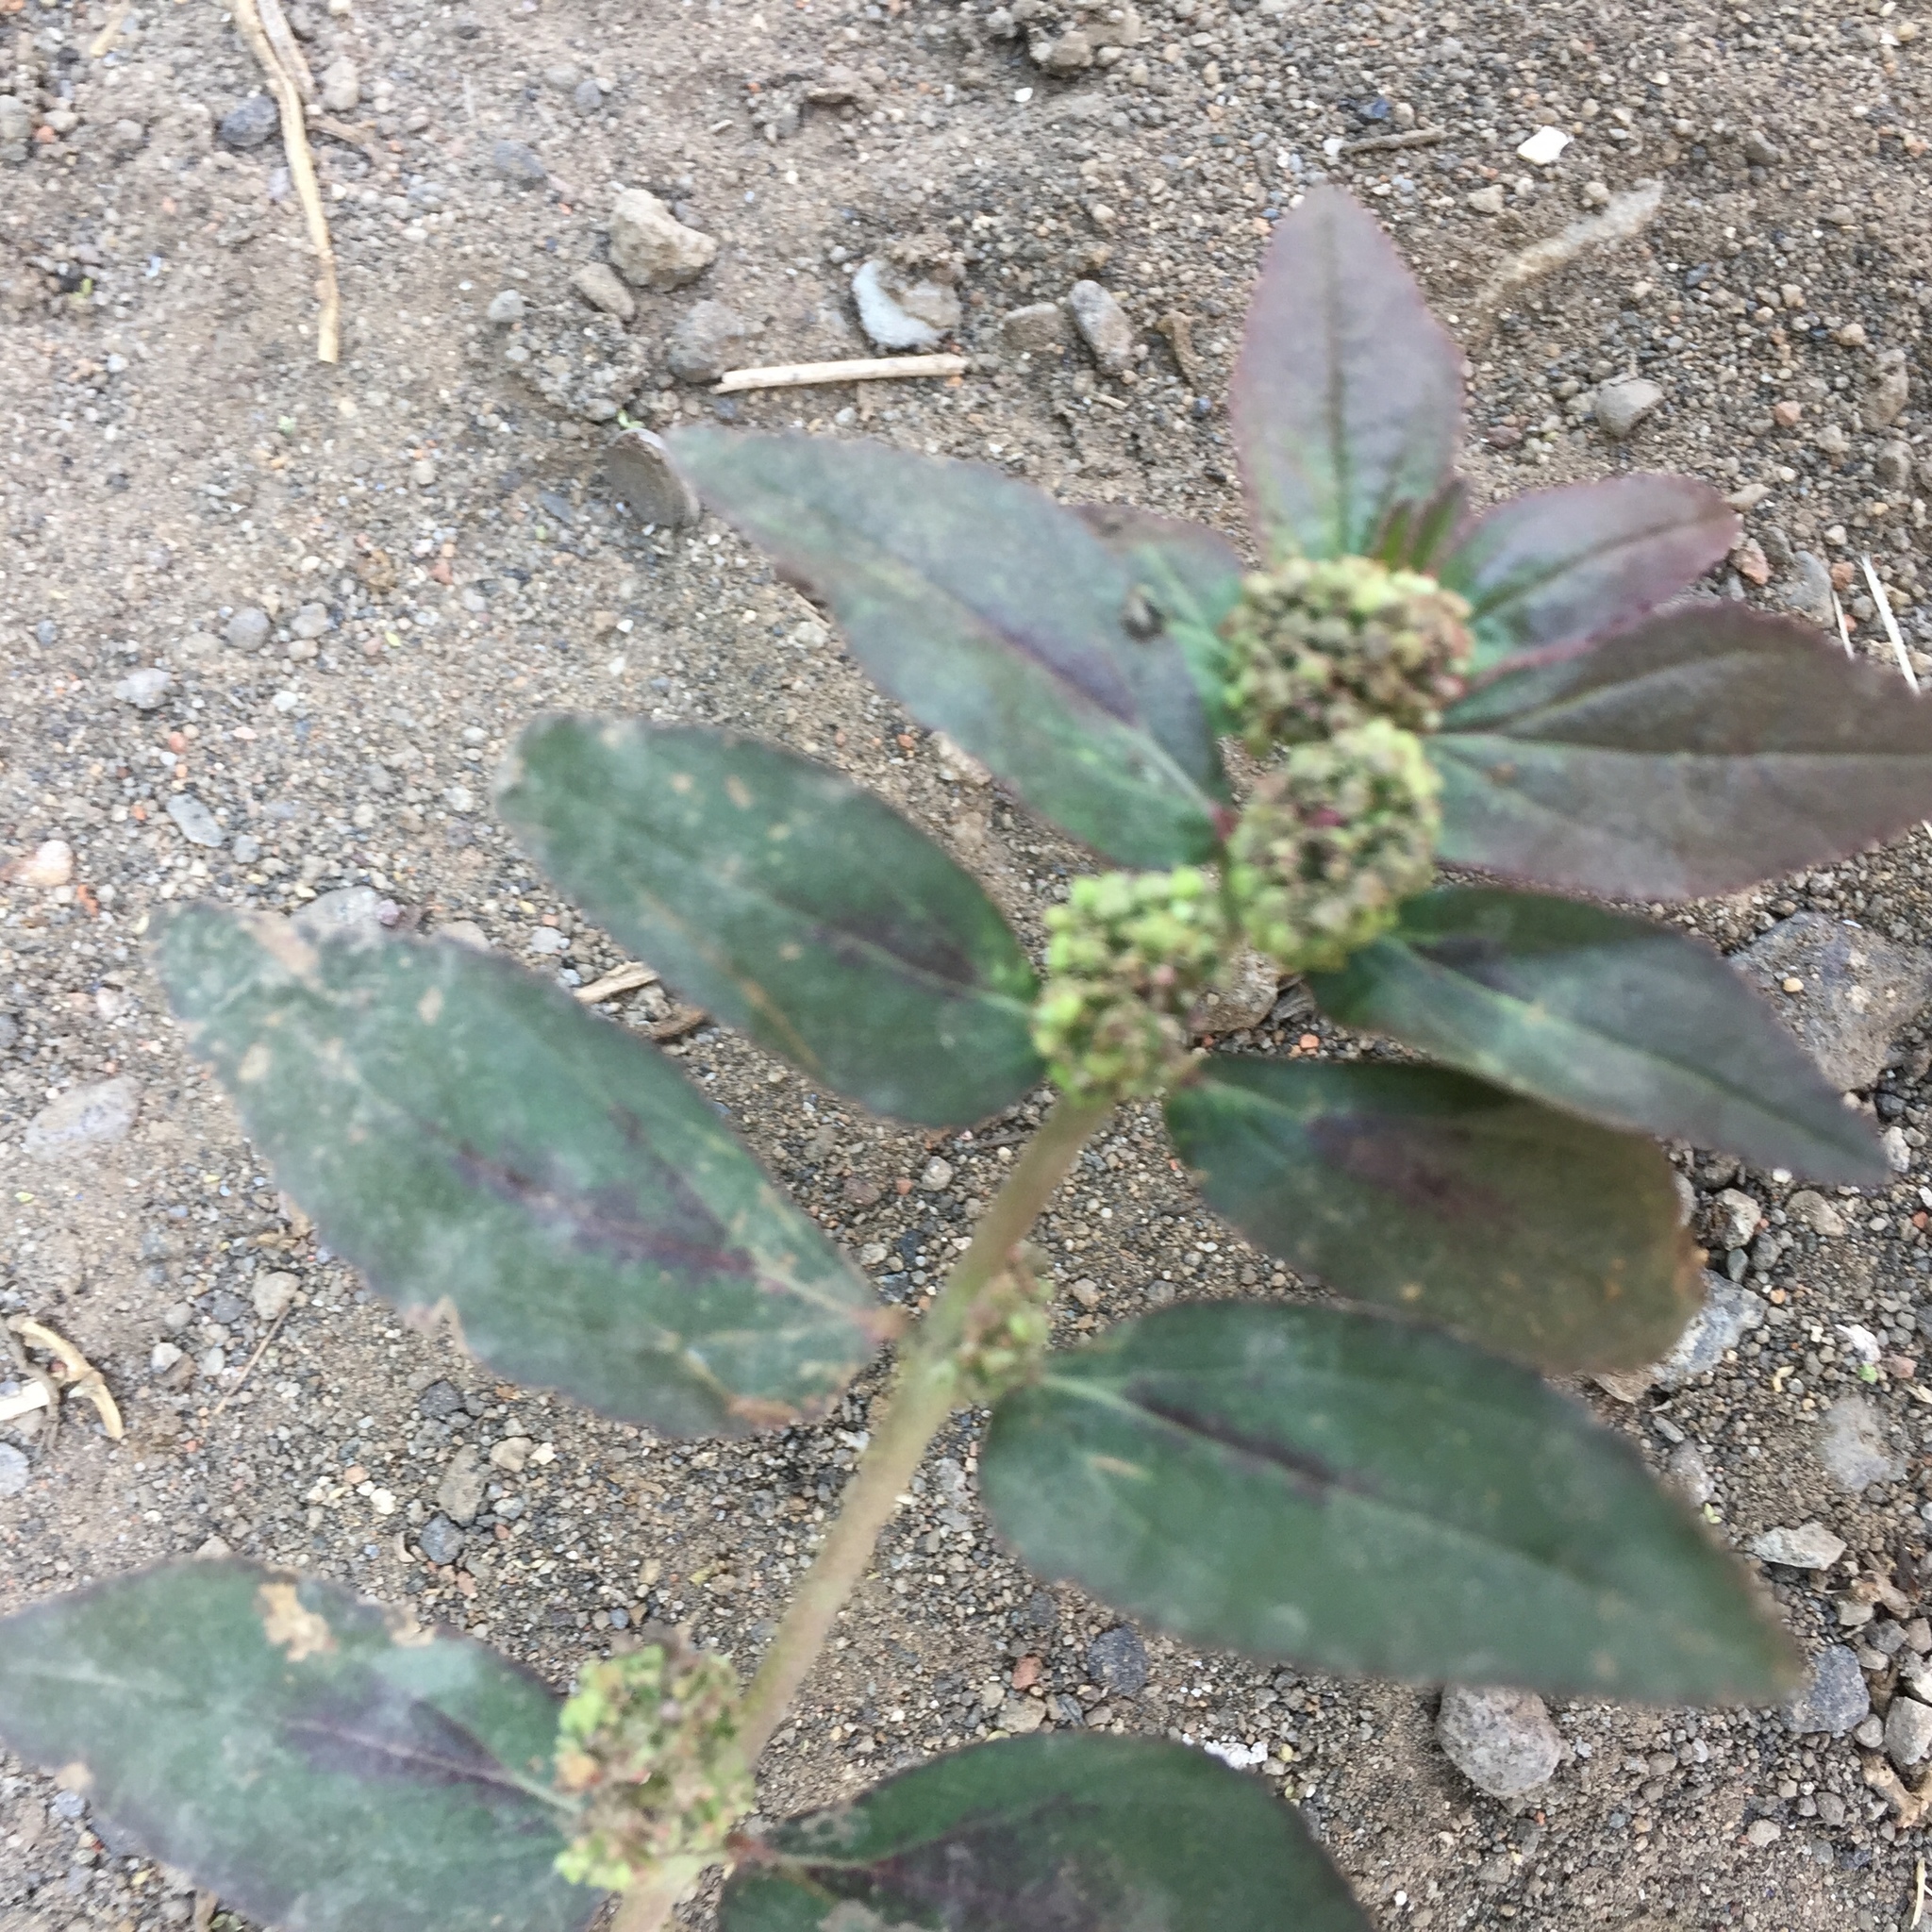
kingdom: Plantae
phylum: Tracheophyta
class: Magnoliopsida
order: Malpighiales
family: Euphorbiaceae
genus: Euphorbia
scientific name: Euphorbia hirta
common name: Pillpod sandmat
